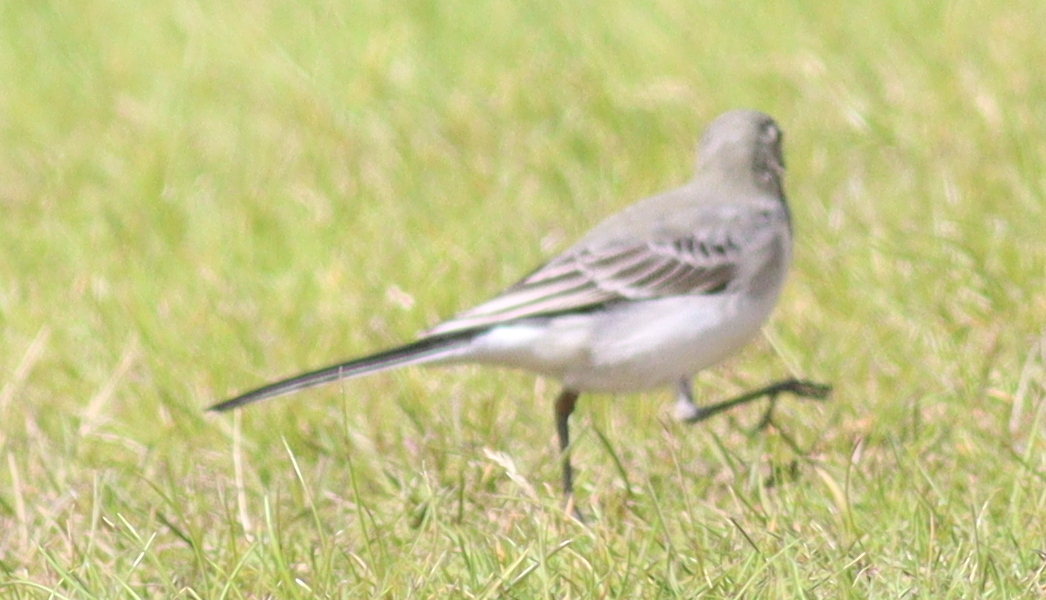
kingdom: Animalia
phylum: Chordata
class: Aves
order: Passeriformes
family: Motacillidae
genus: Motacilla
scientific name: Motacilla alba
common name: White wagtail
